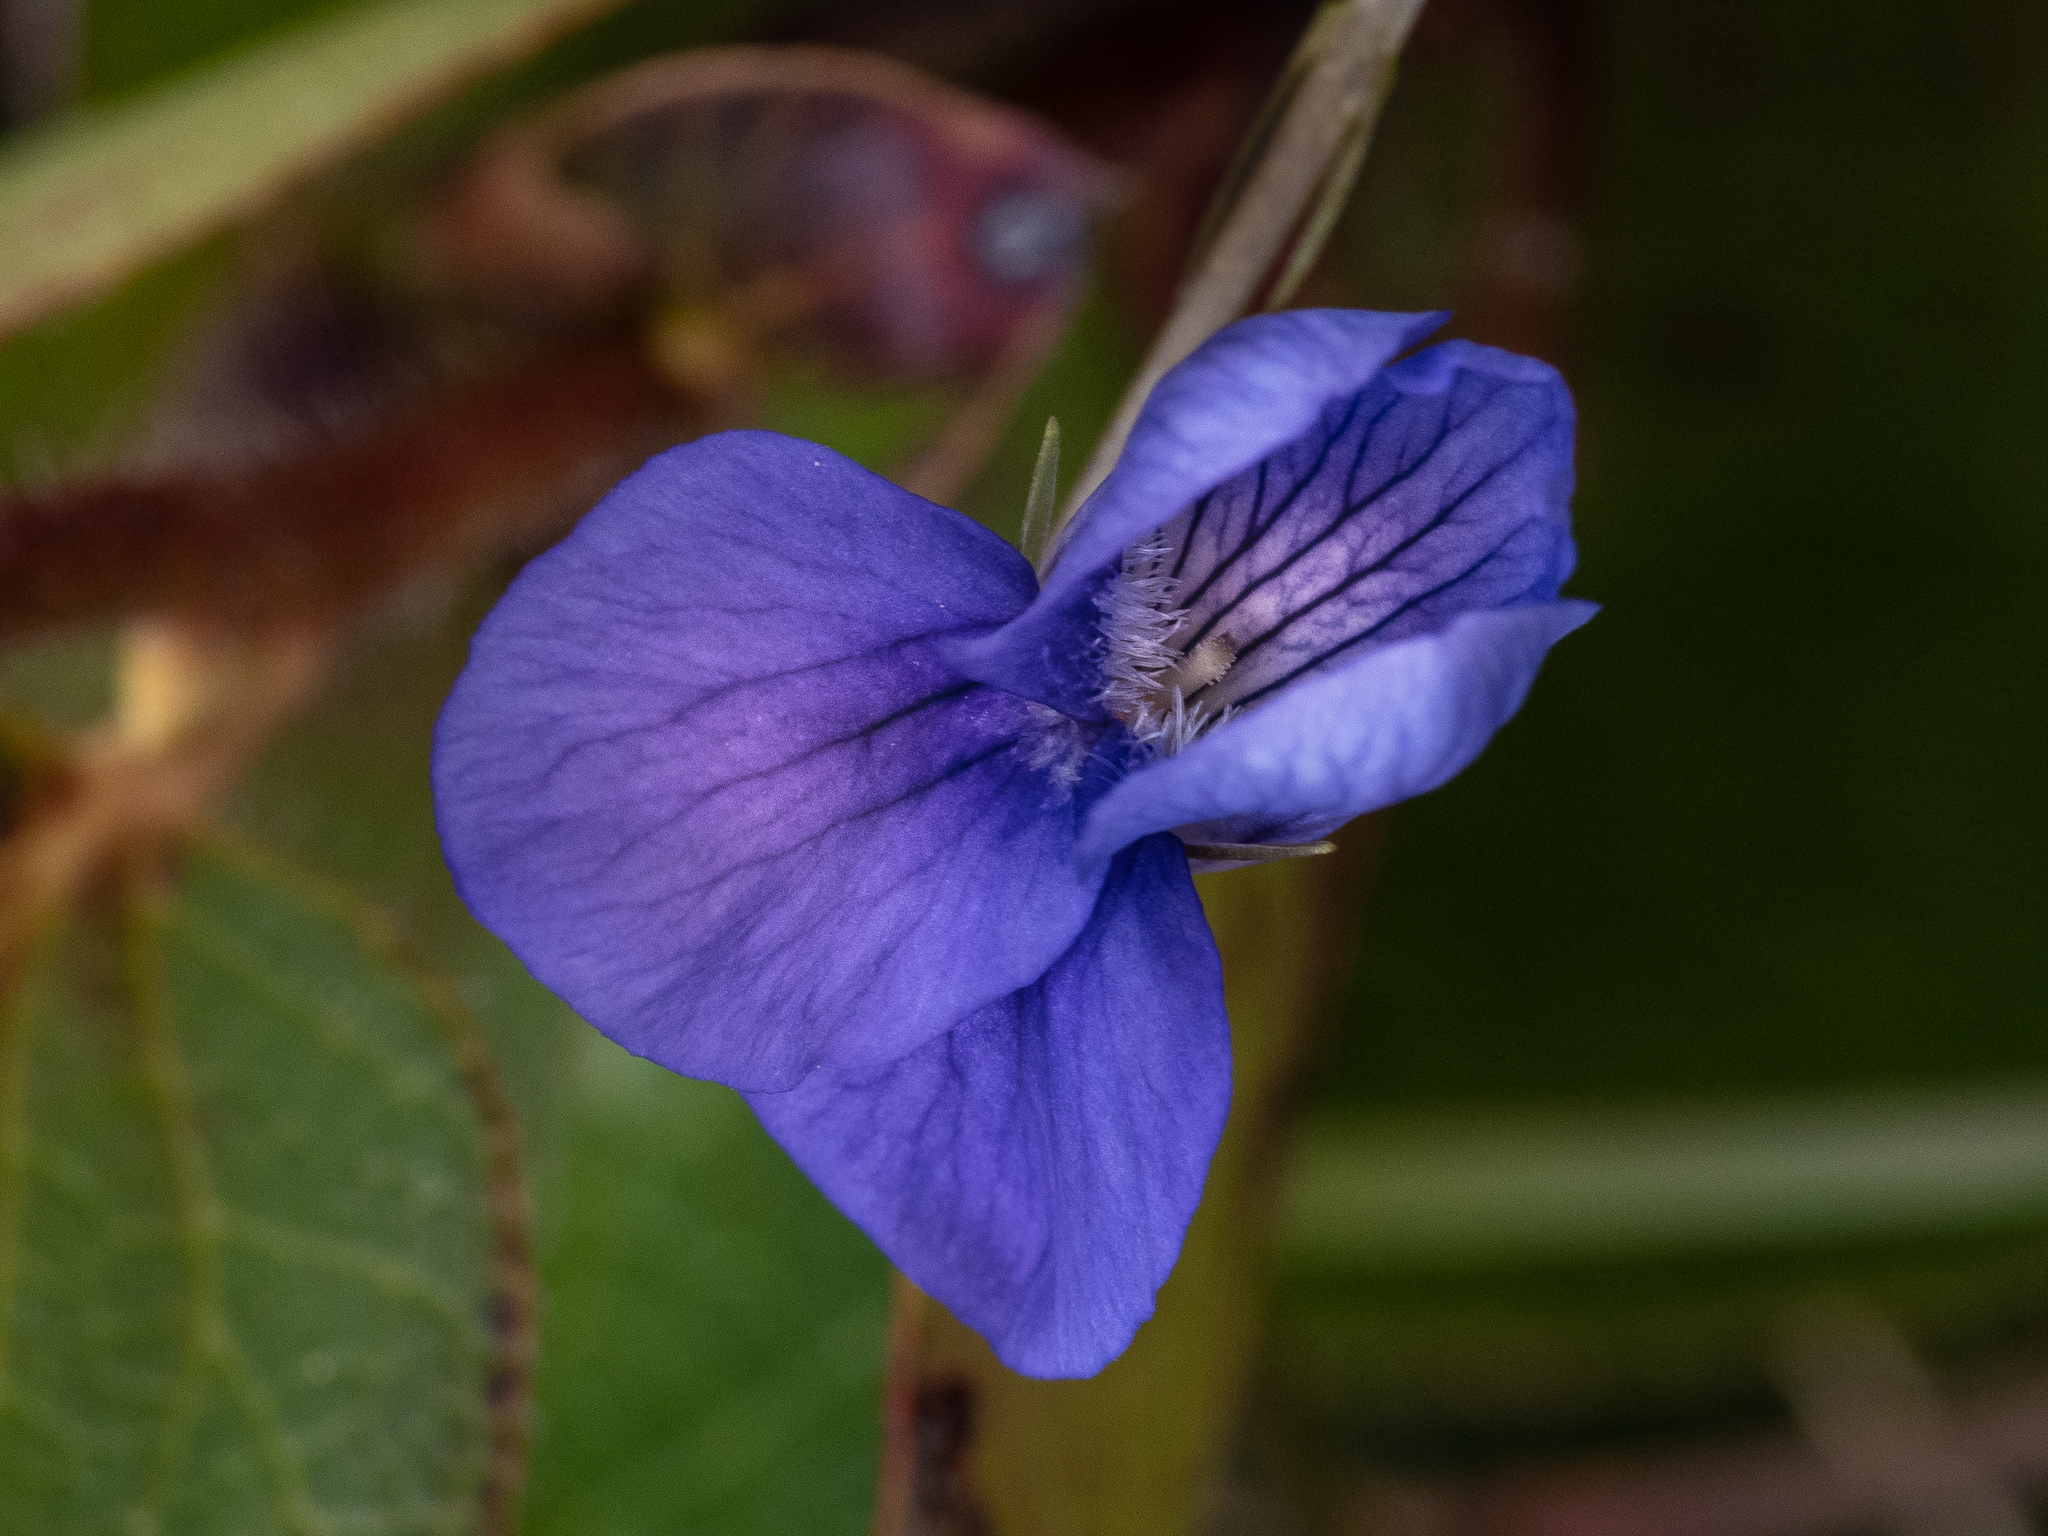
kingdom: Plantae
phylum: Tracheophyta
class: Magnoliopsida
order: Malpighiales
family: Violaceae
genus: Viola
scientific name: Viola adunca
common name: Sand violet
